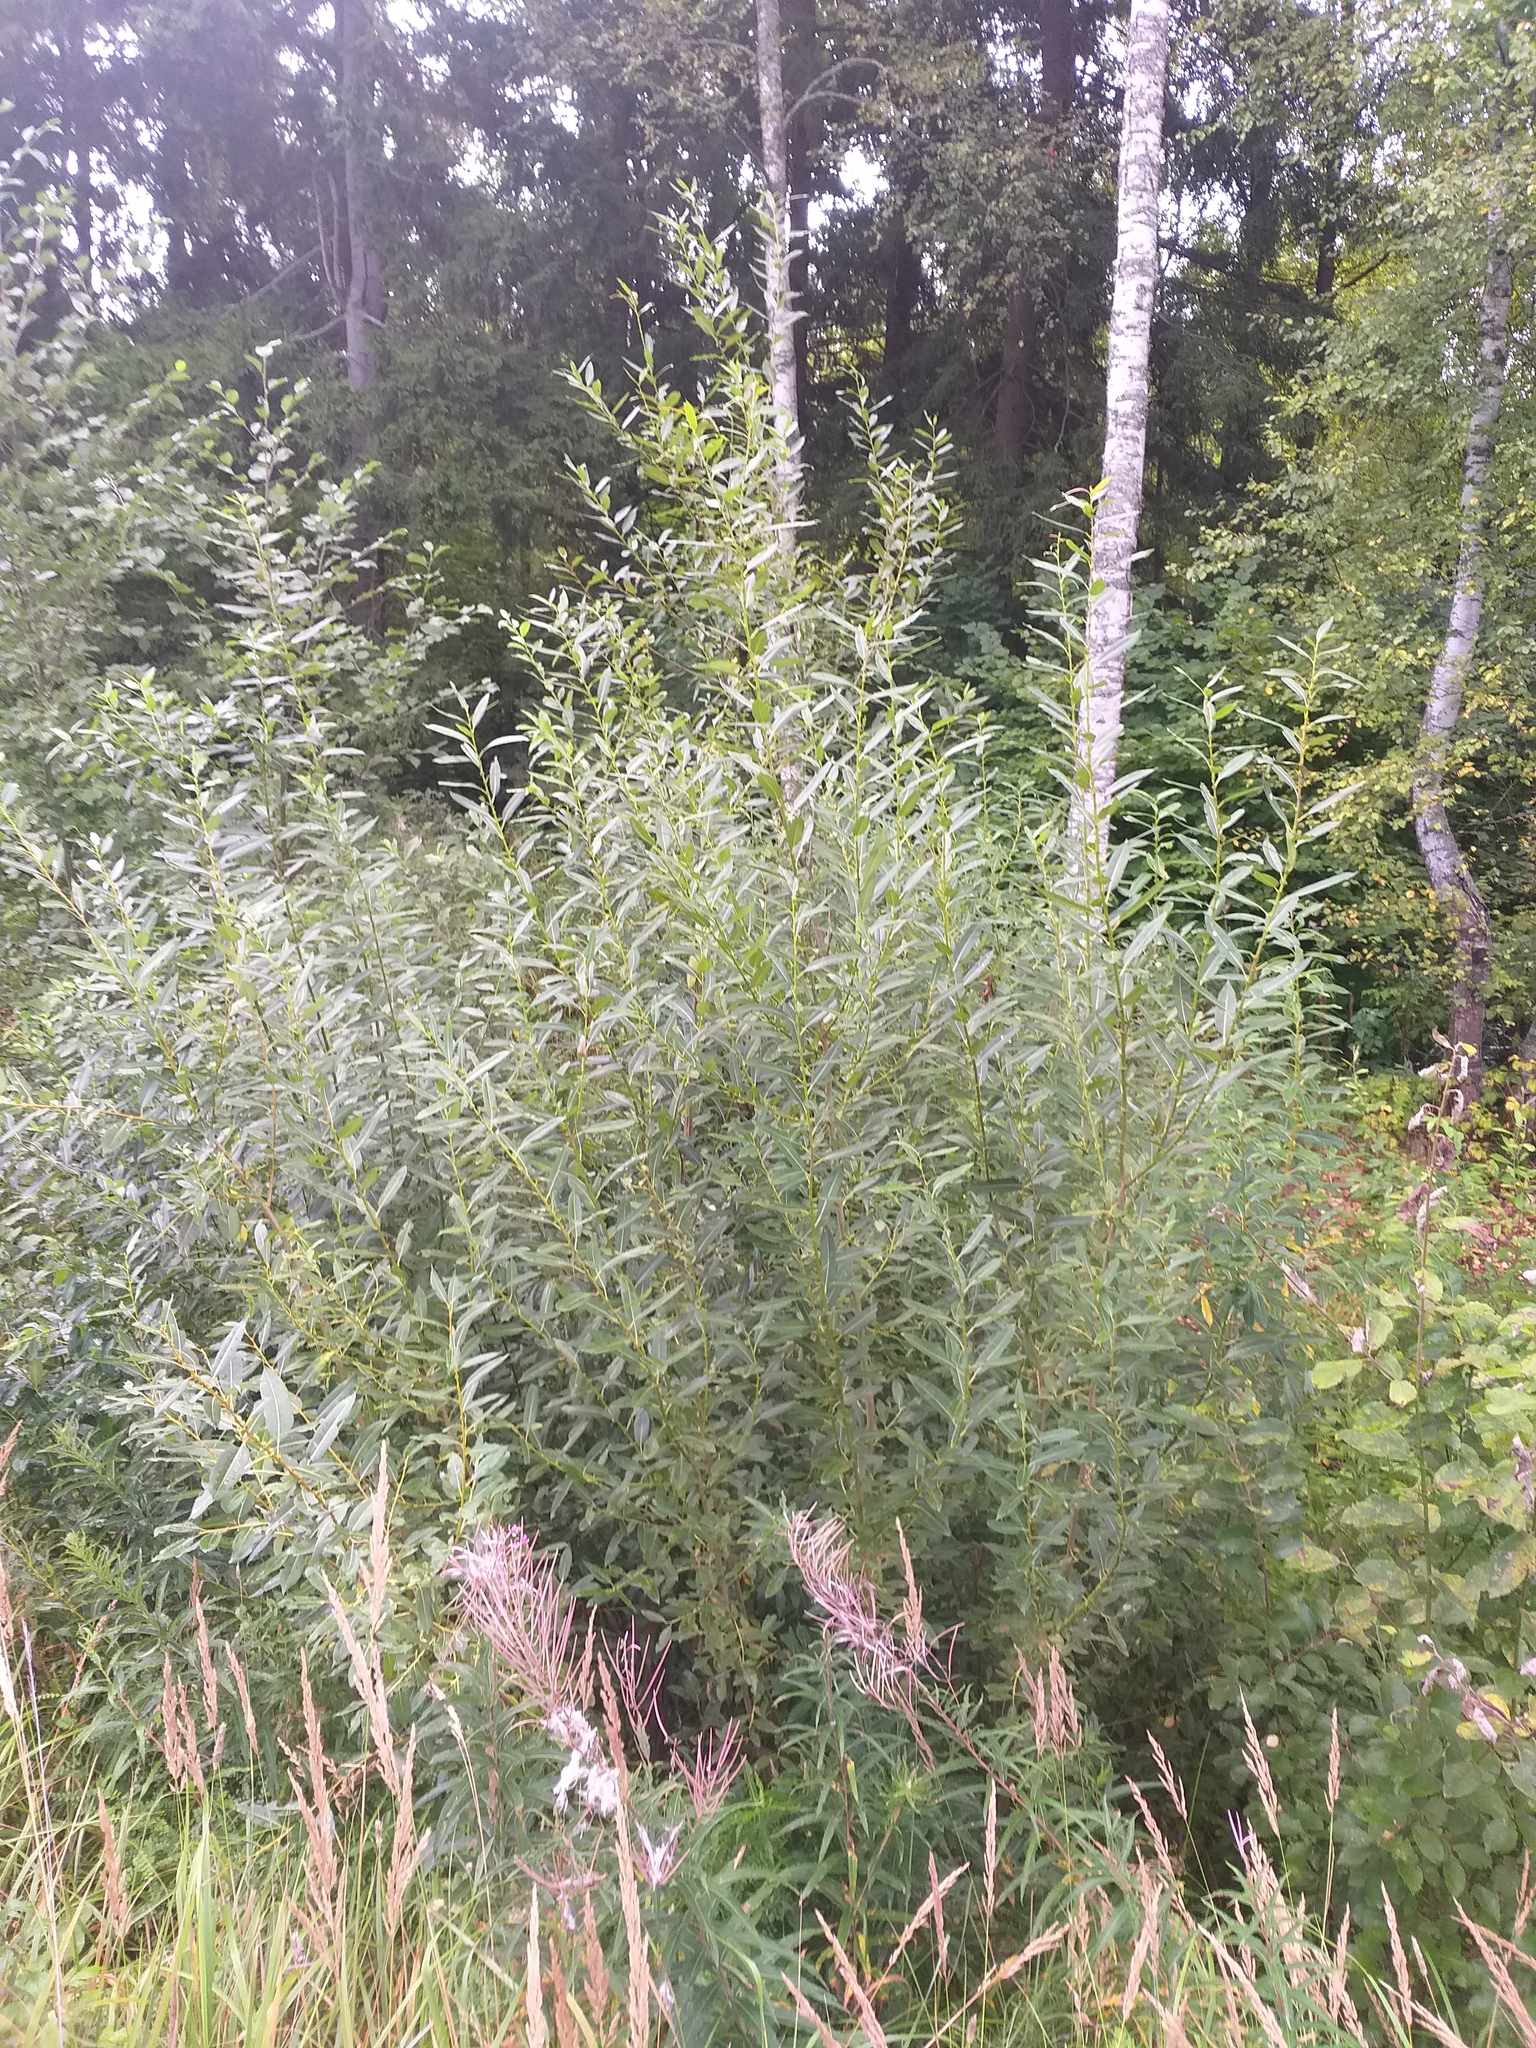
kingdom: Plantae
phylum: Tracheophyta
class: Magnoliopsida
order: Malpighiales
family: Salicaceae
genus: Salix
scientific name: Salix triandra
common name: Almond willow
